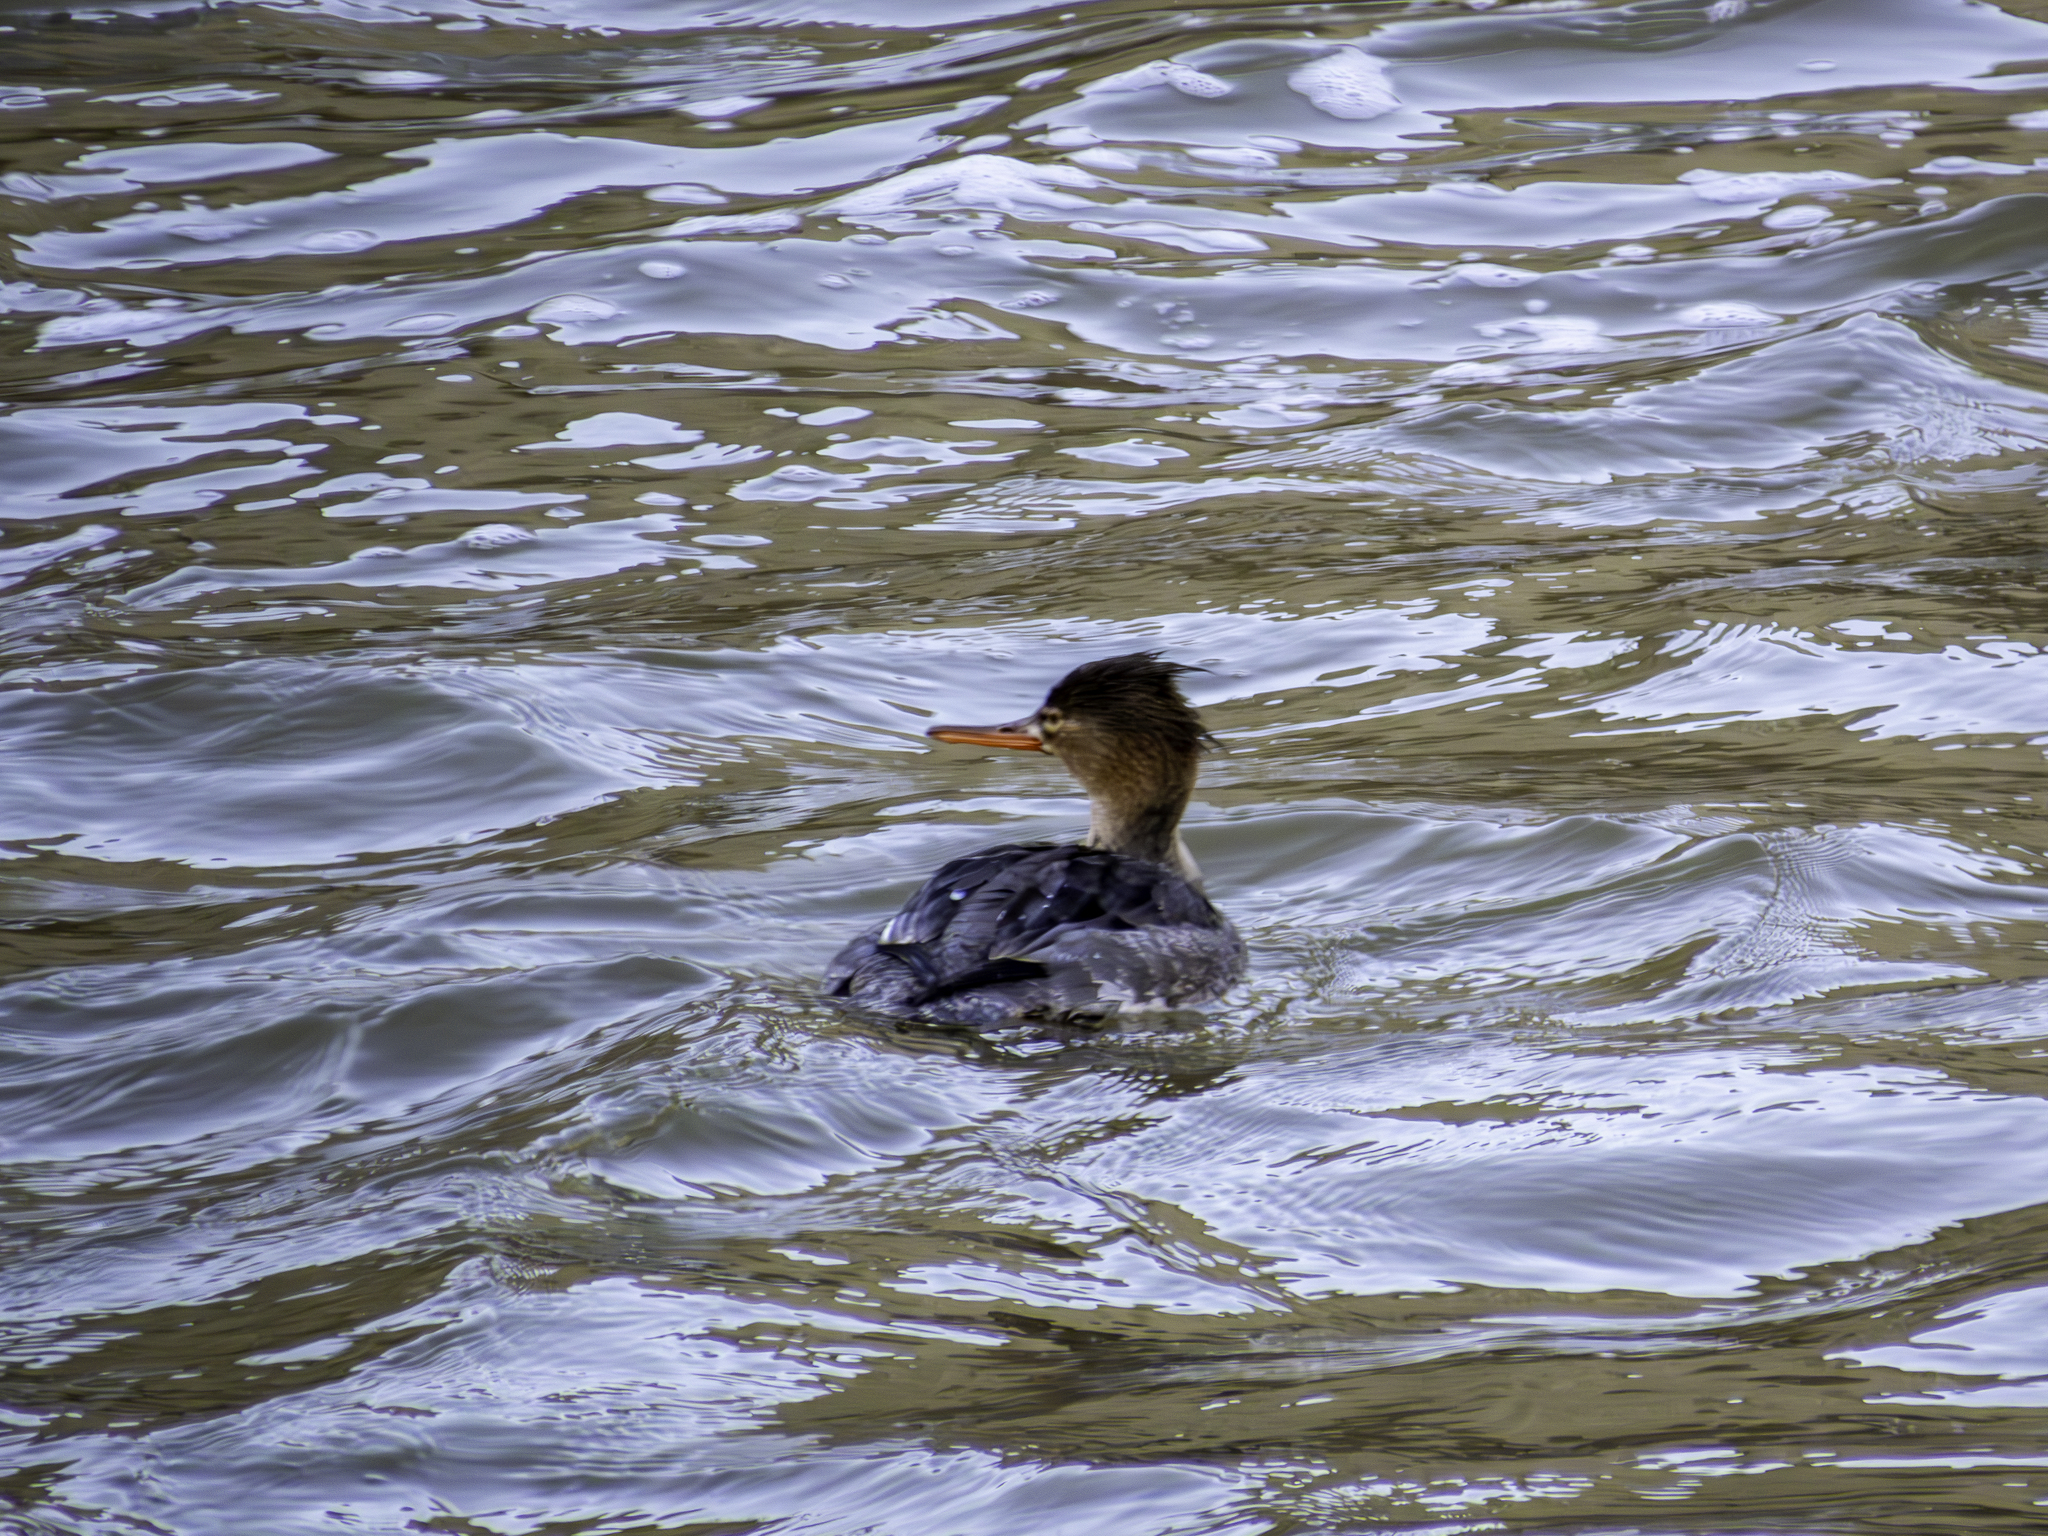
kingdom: Animalia
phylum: Chordata
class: Aves
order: Anseriformes
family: Anatidae
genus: Mergus
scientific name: Mergus serrator
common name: Red-breasted merganser
